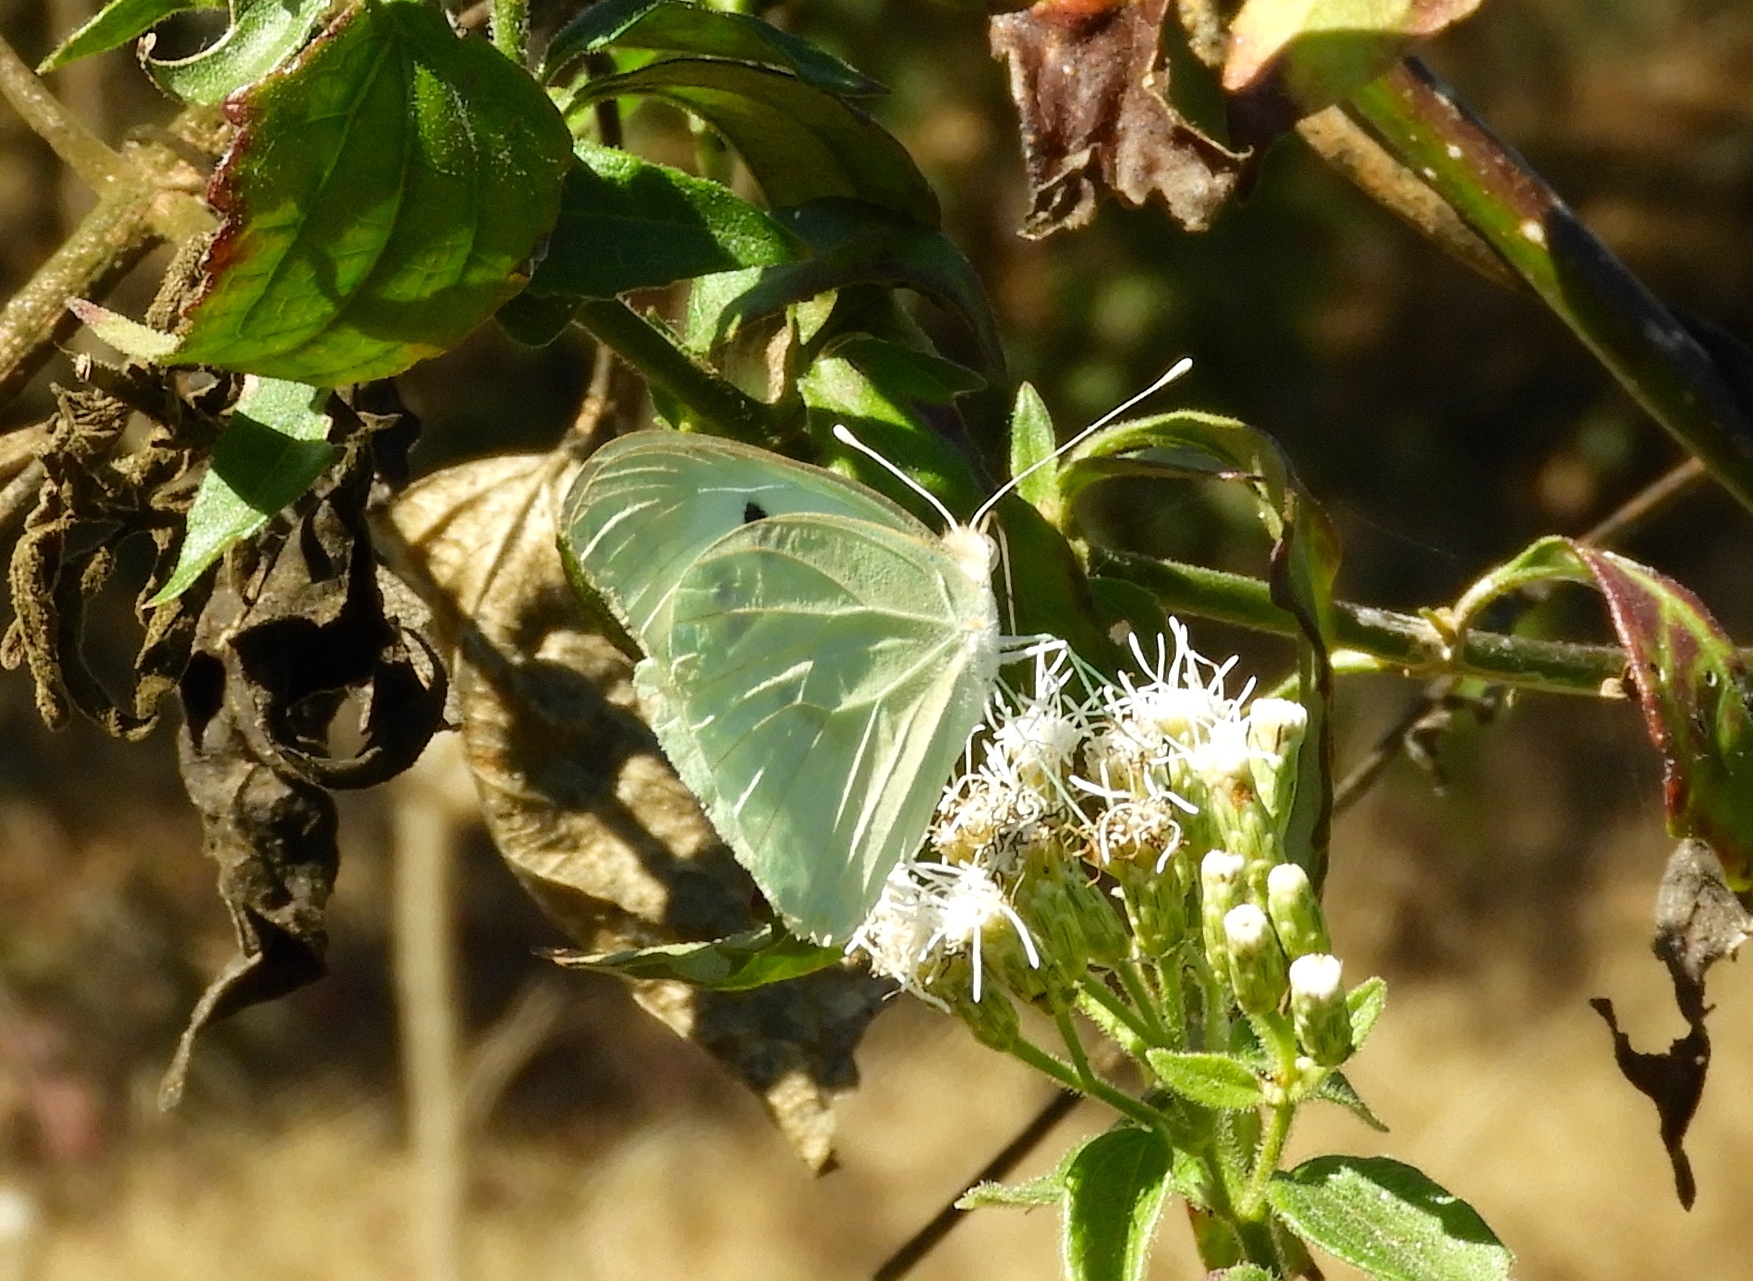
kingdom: Animalia
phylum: Arthropoda
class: Insecta
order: Lepidoptera
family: Pieridae
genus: Ganyra
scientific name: Ganyra josephina
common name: Giant white
